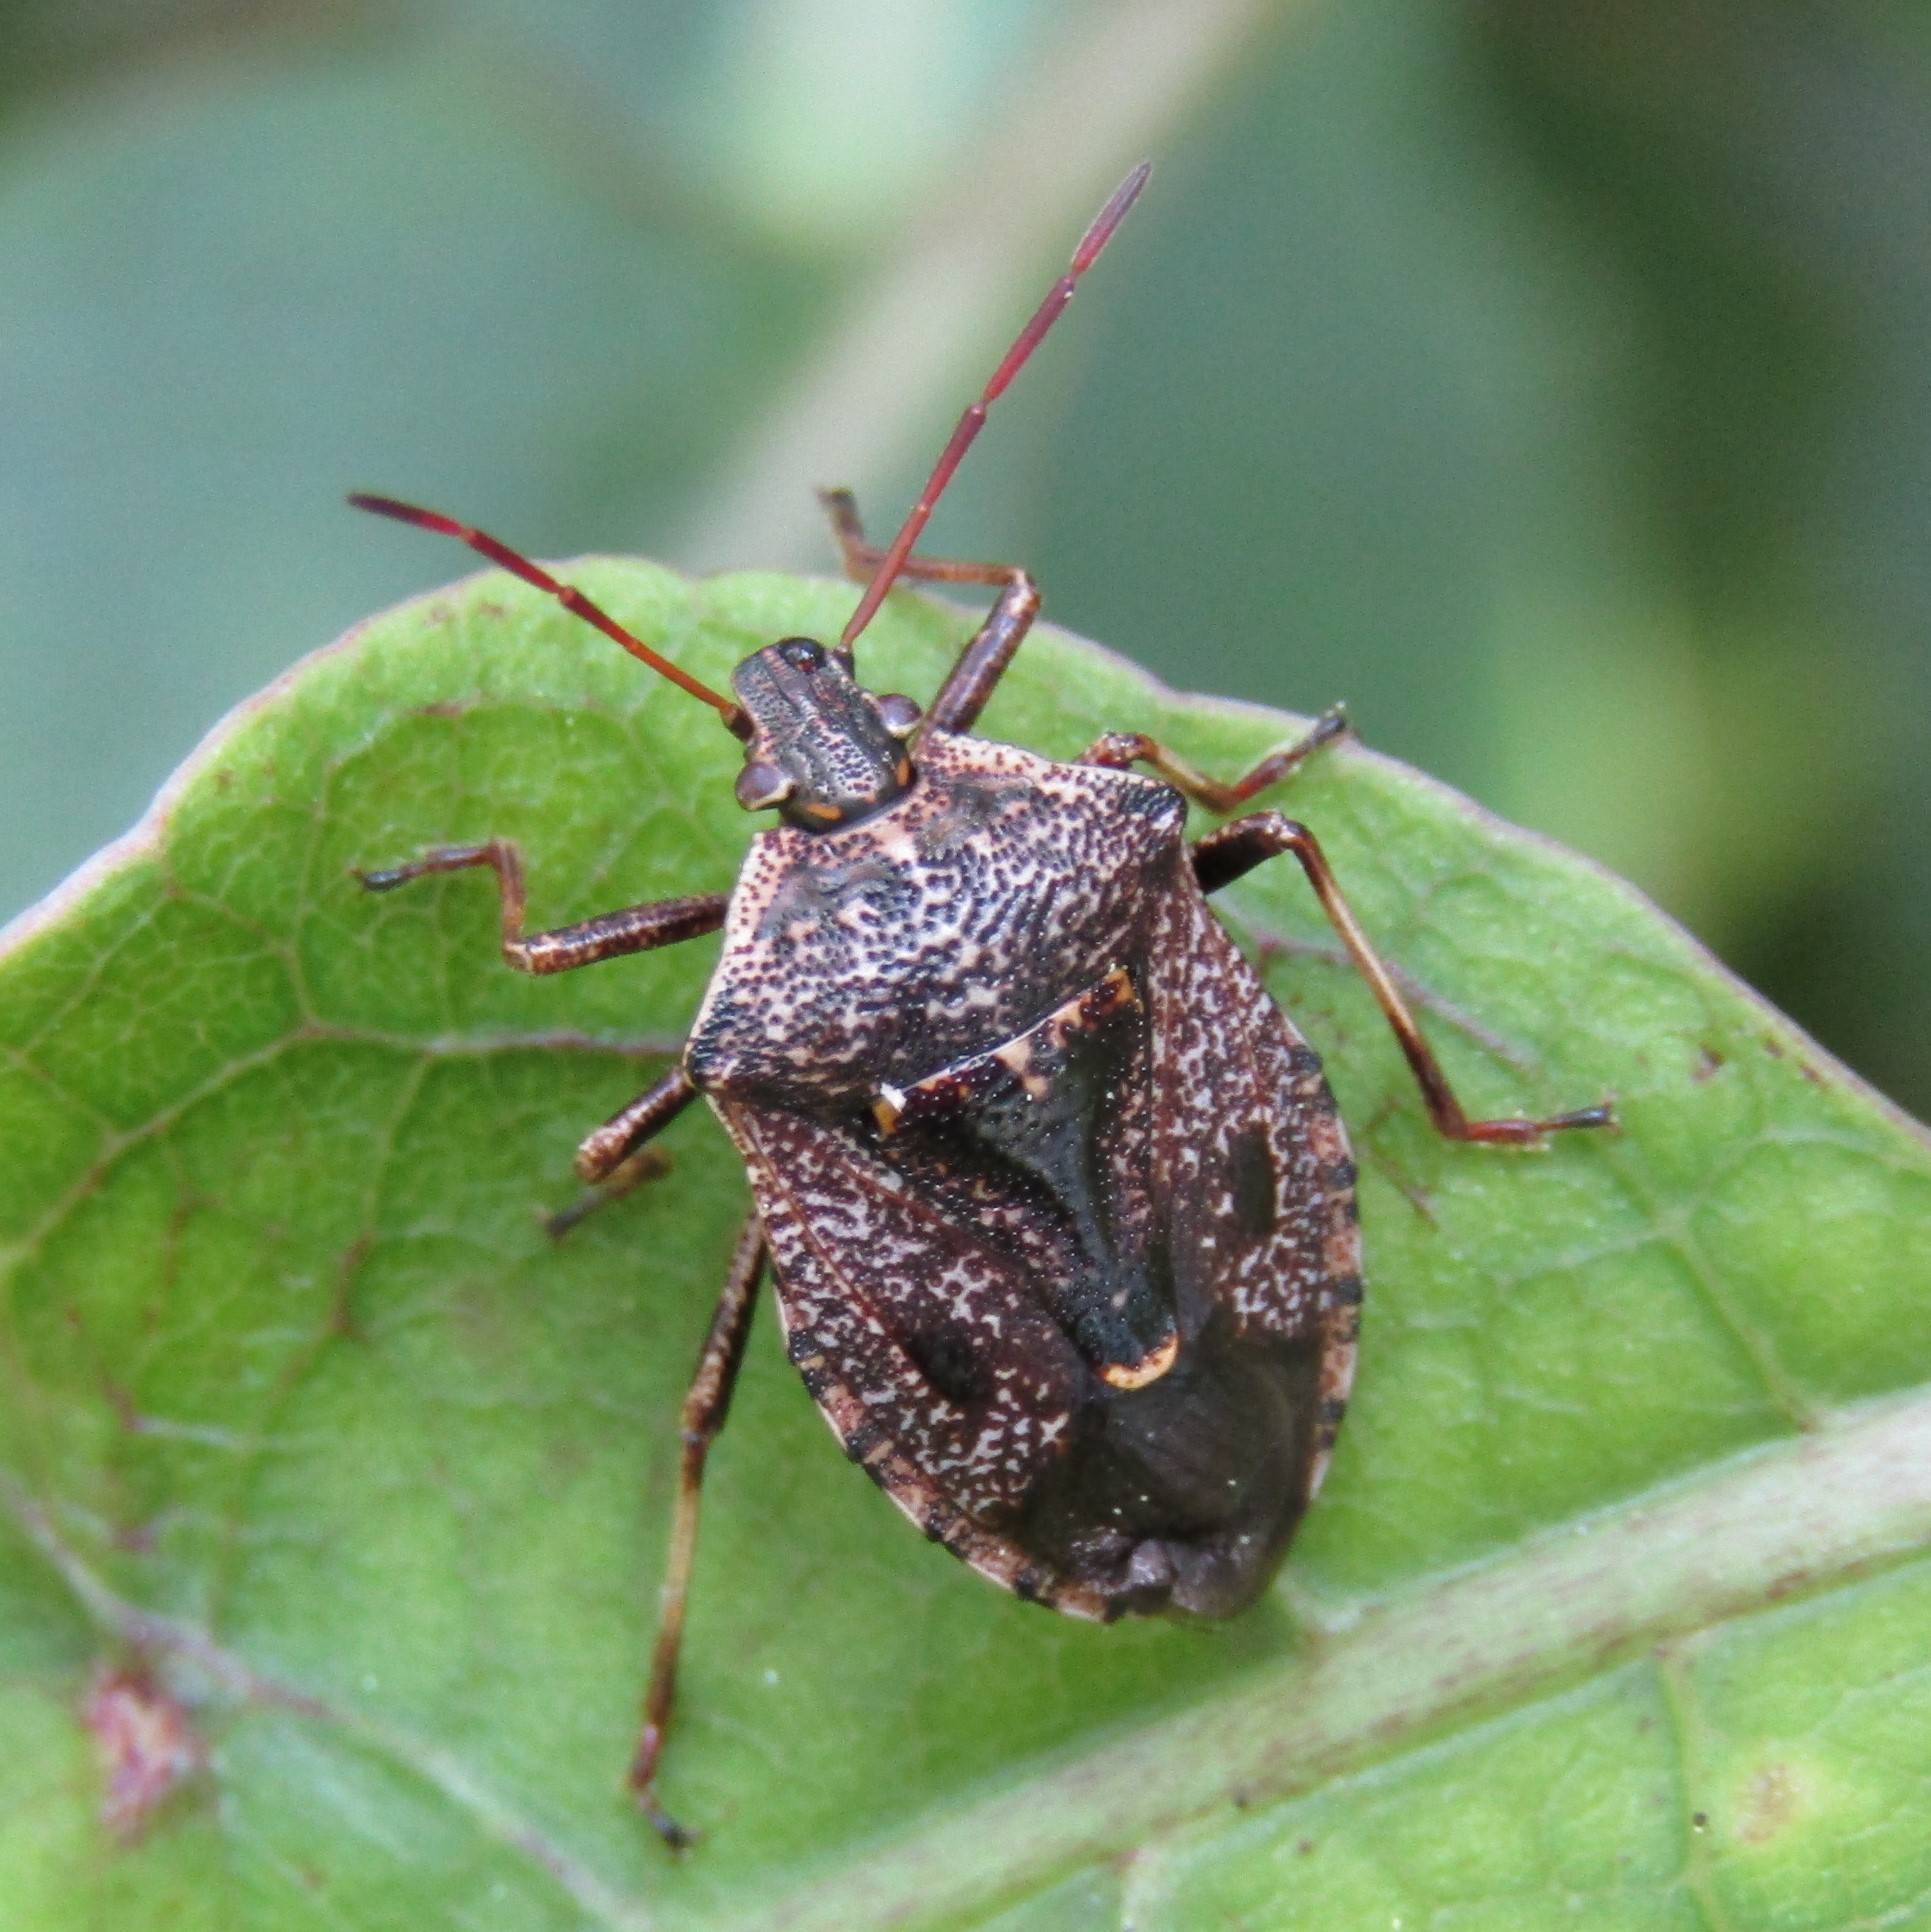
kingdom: Animalia
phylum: Arthropoda
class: Insecta
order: Hemiptera
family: Pentatomidae
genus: Cermatulus
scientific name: Cermatulus nasalis
